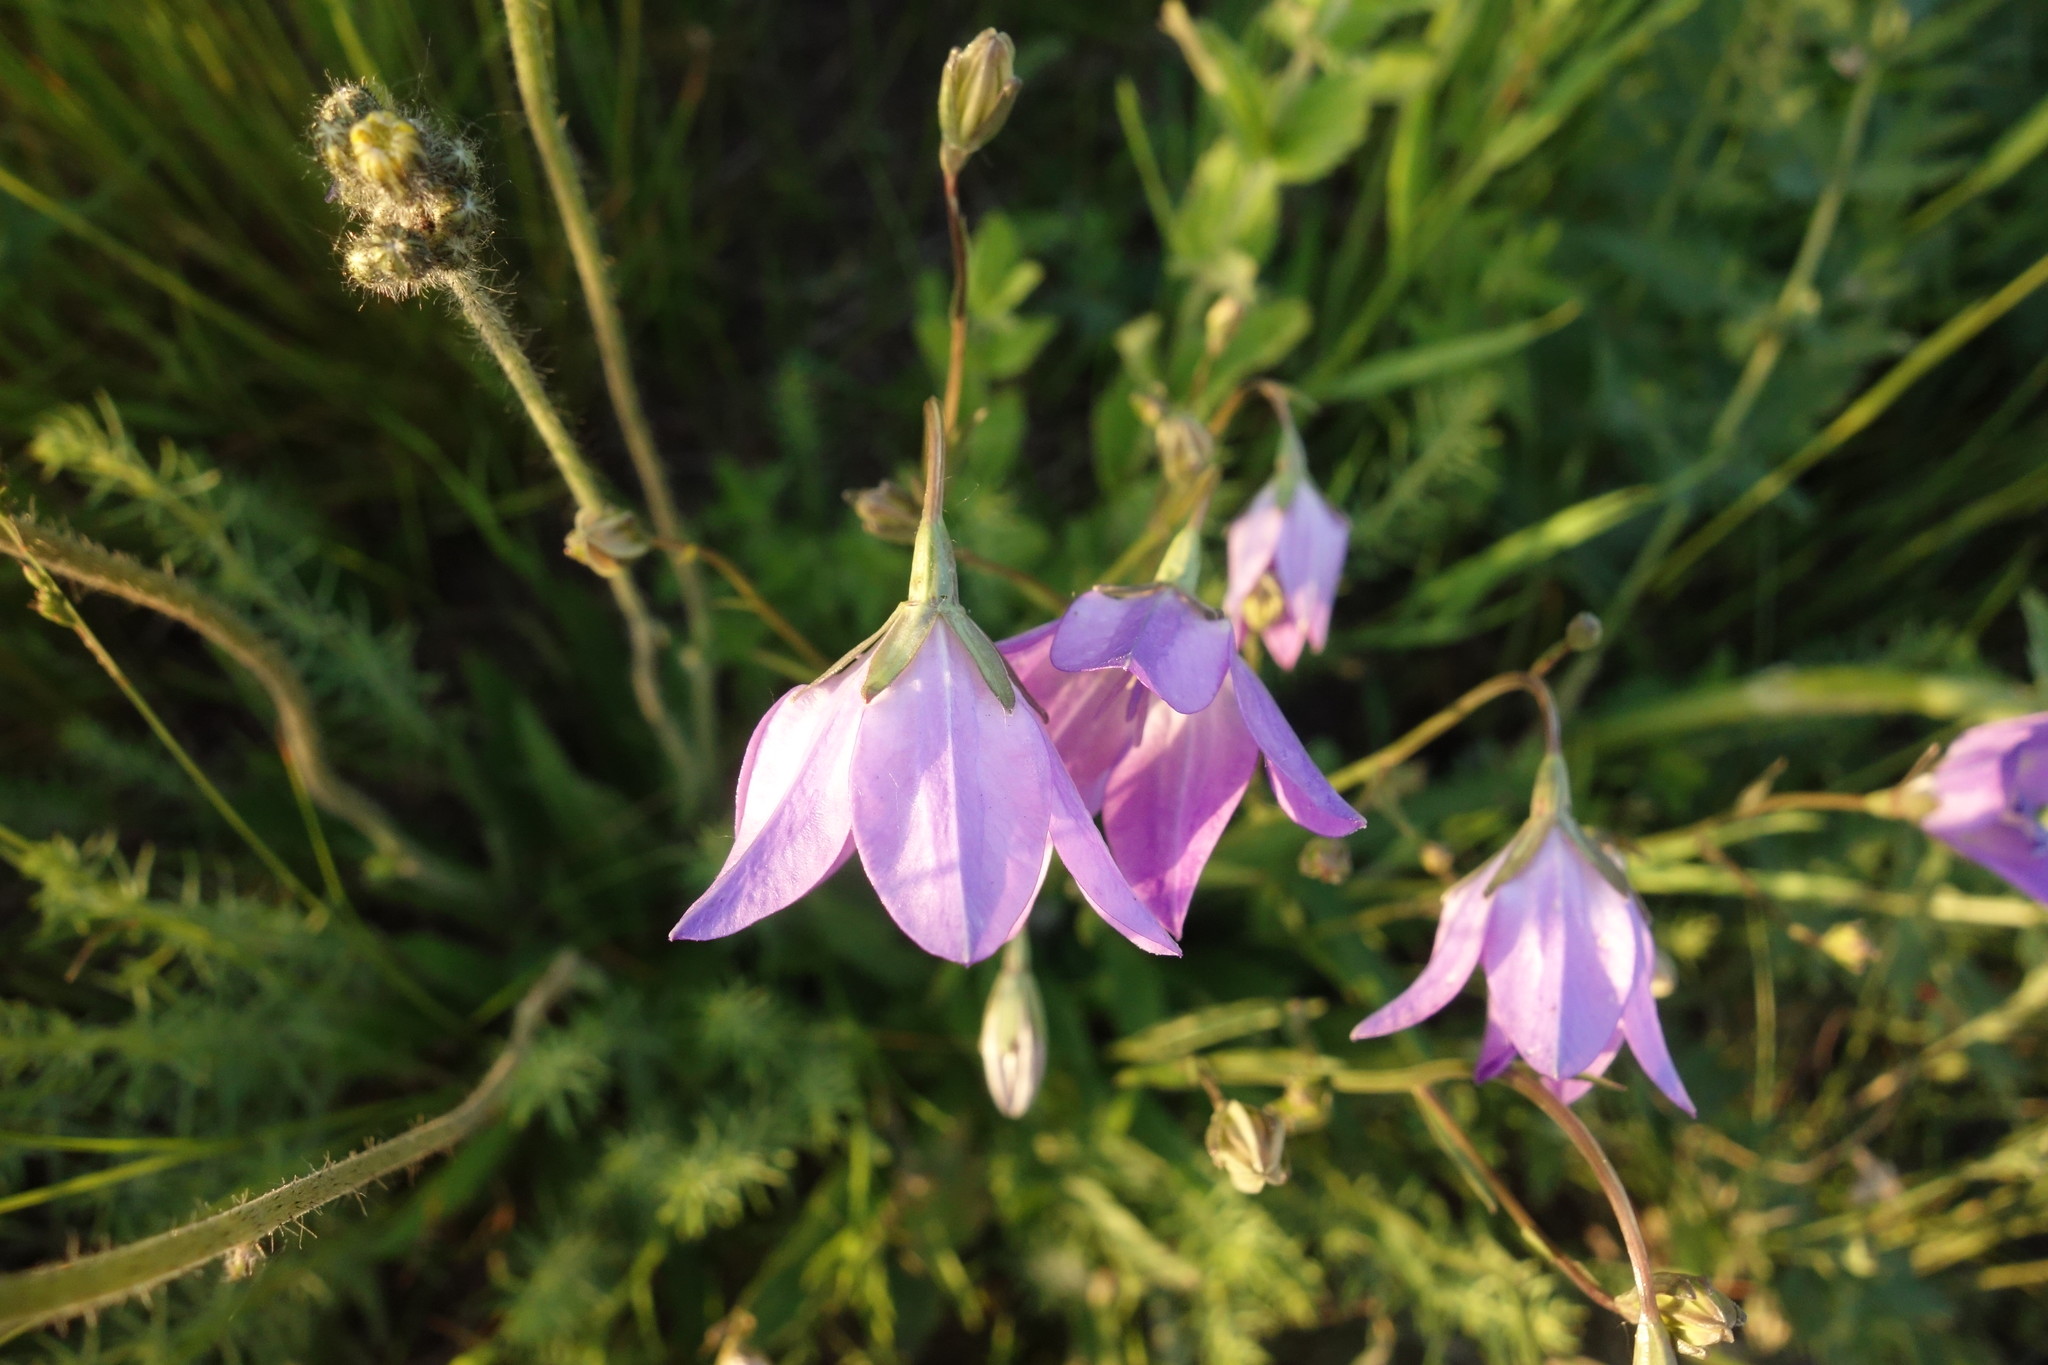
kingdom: Plantae
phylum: Tracheophyta
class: Magnoliopsida
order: Asterales
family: Campanulaceae
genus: Campanula
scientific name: Campanula stevenii
